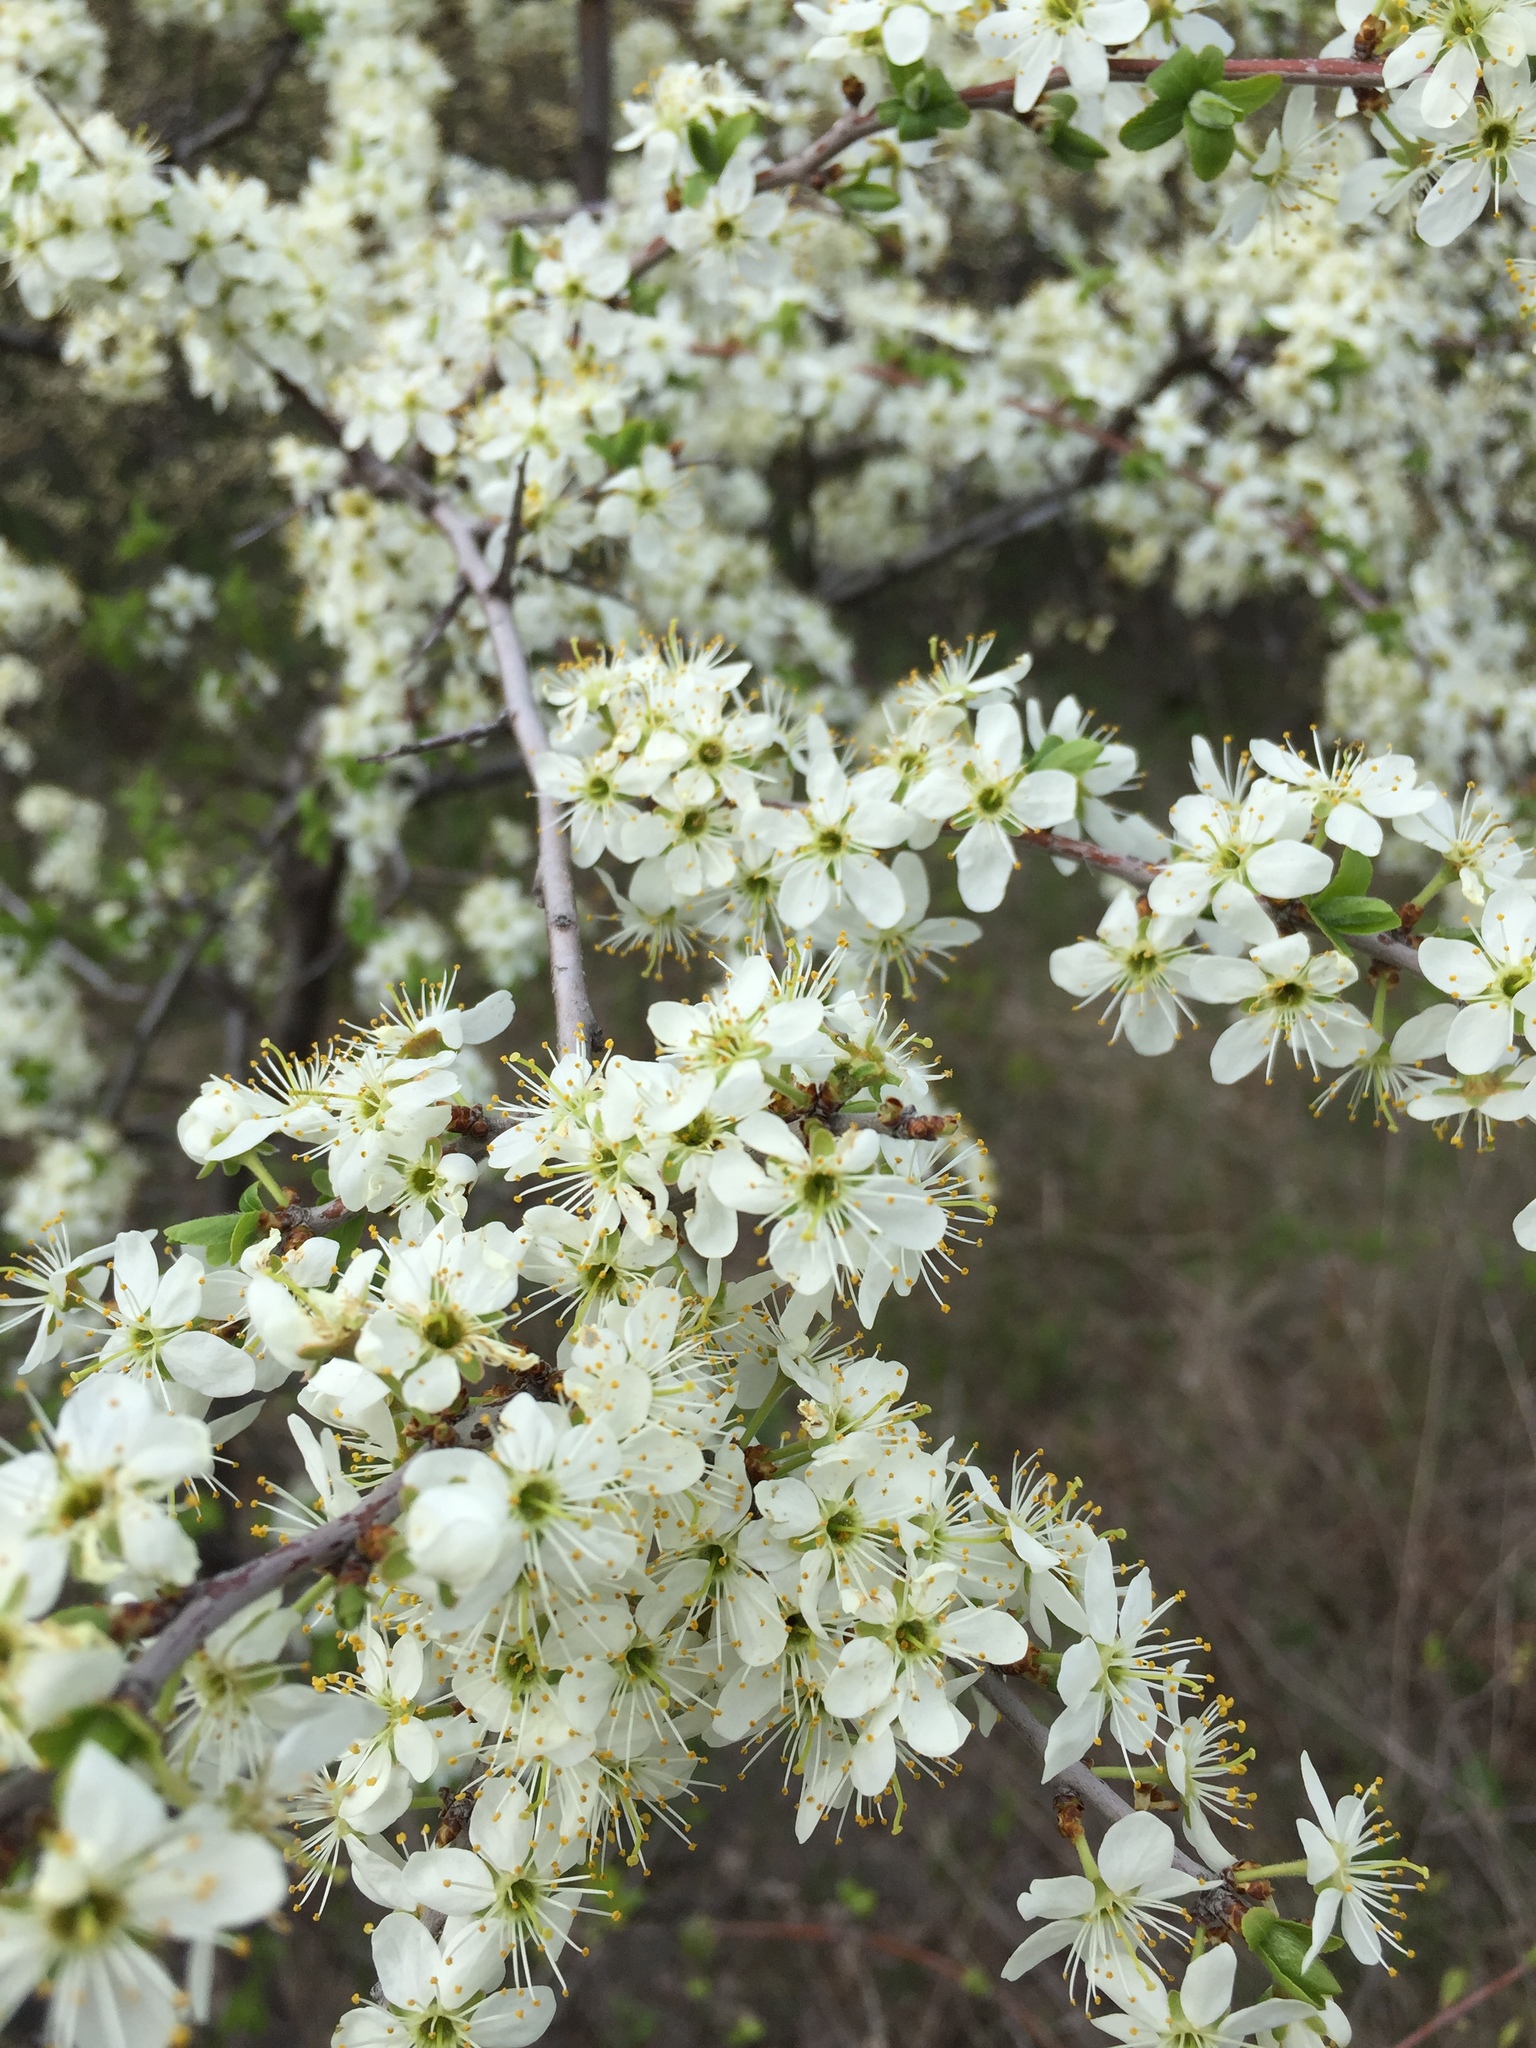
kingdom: Plantae
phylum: Tracheophyta
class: Magnoliopsida
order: Rosales
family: Rosaceae
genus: Prunus
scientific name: Prunus spinosa
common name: Blackthorn
